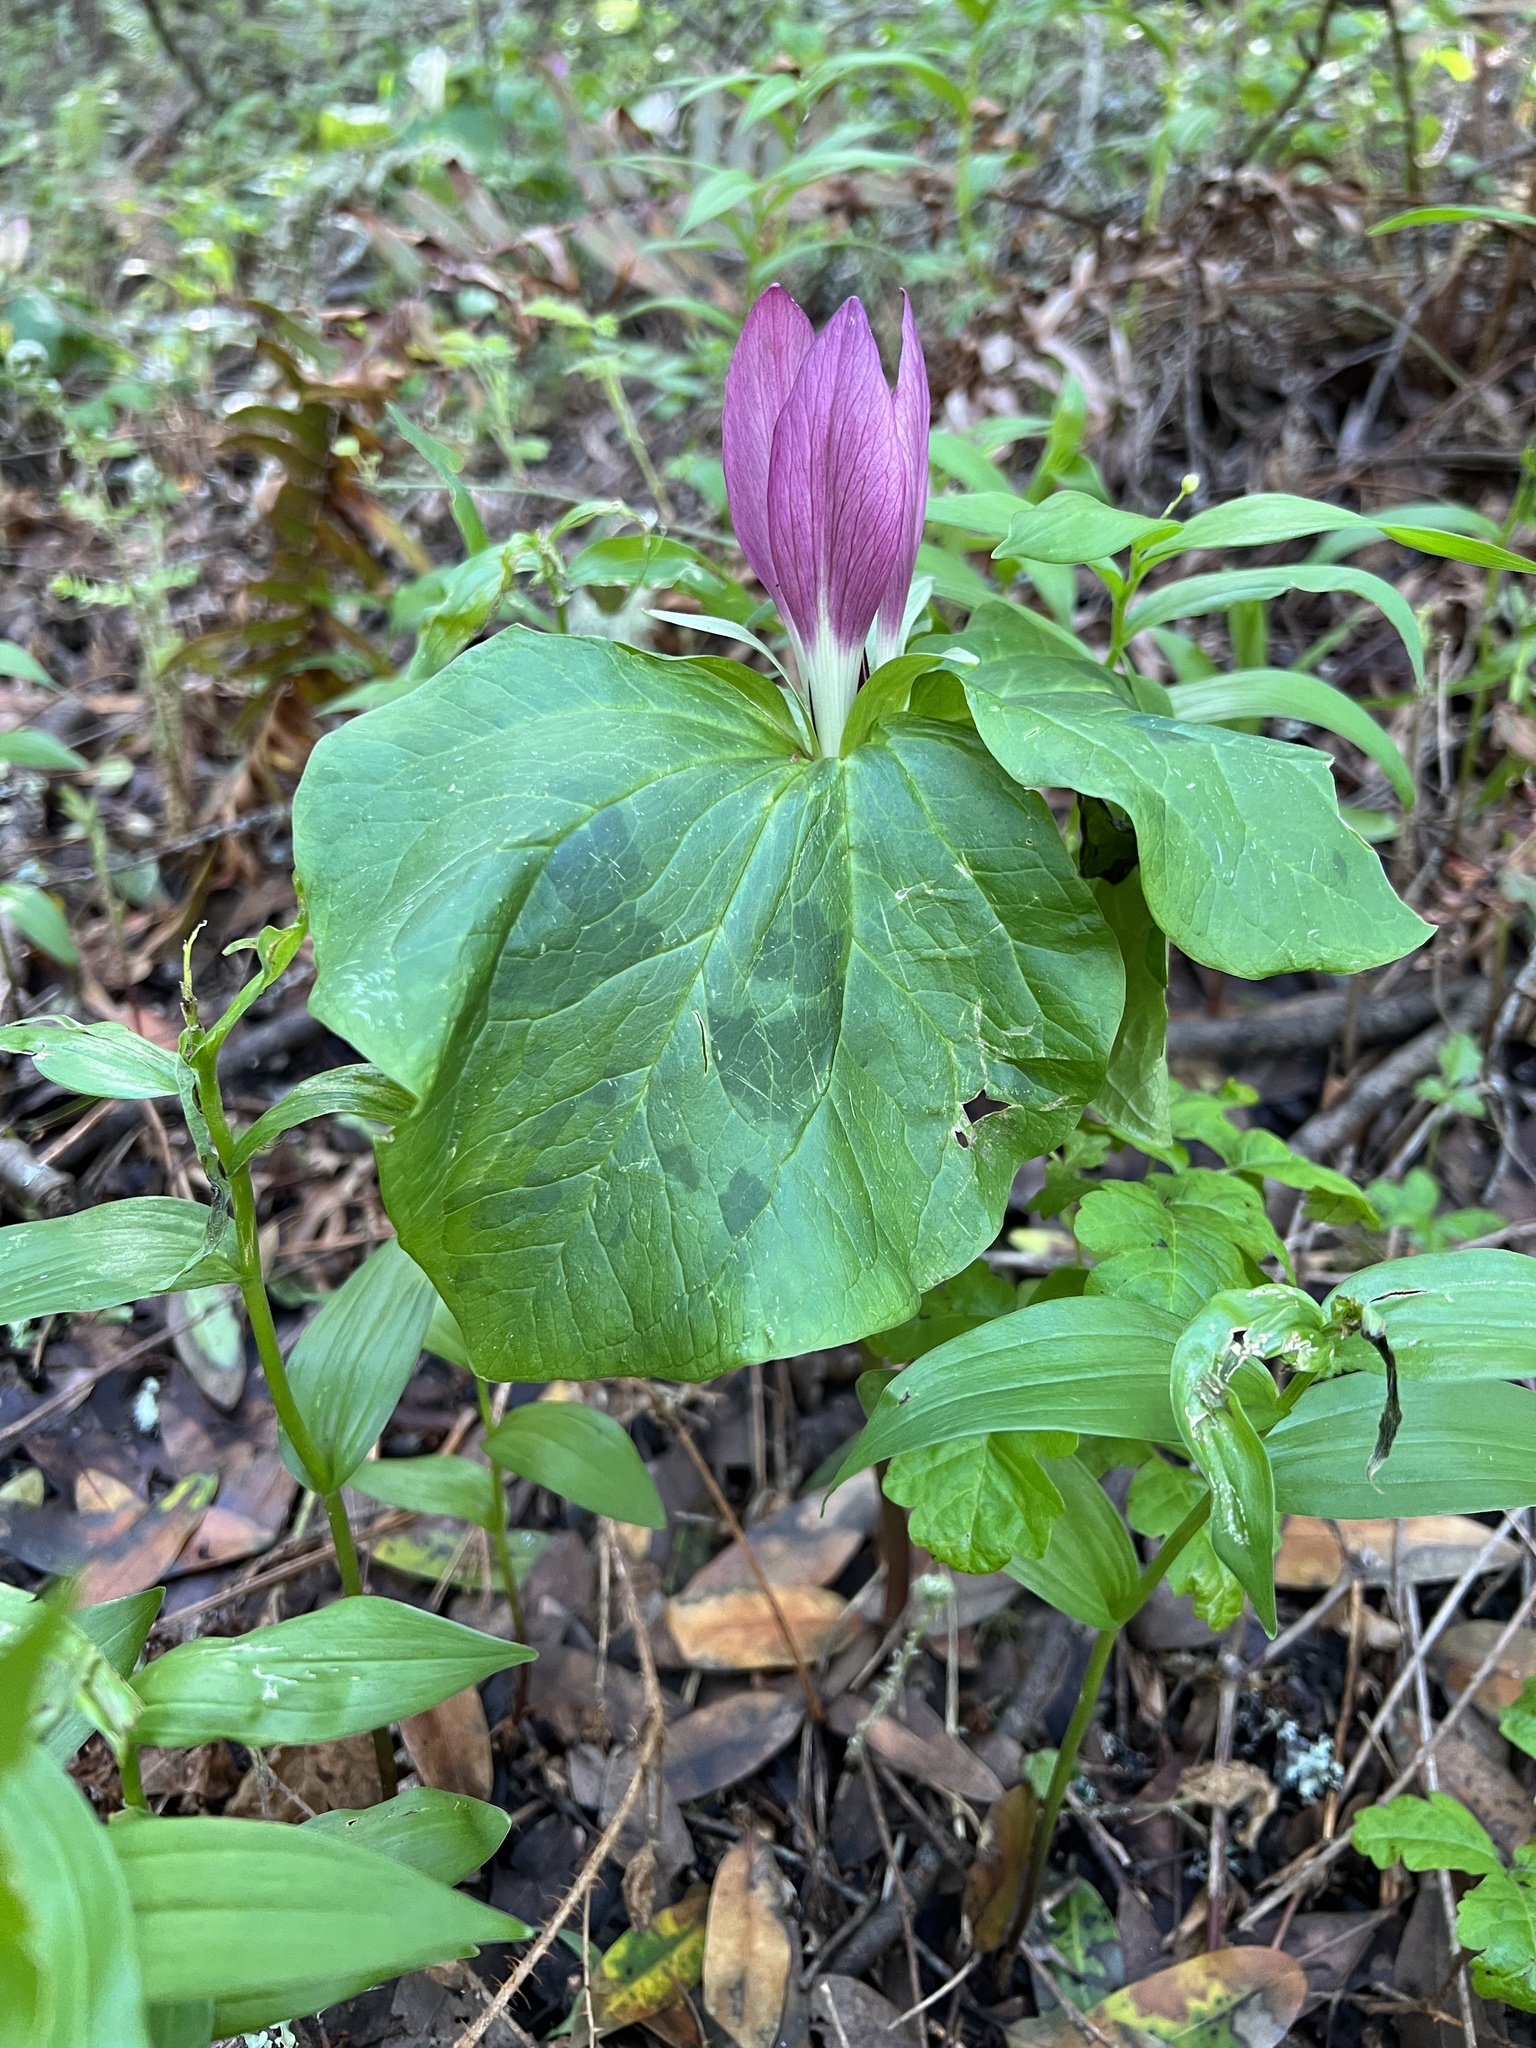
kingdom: Plantae
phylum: Tracheophyta
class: Liliopsida
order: Liliales
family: Melanthiaceae
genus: Trillium
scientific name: Trillium chloropetalum
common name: Giant trillium
